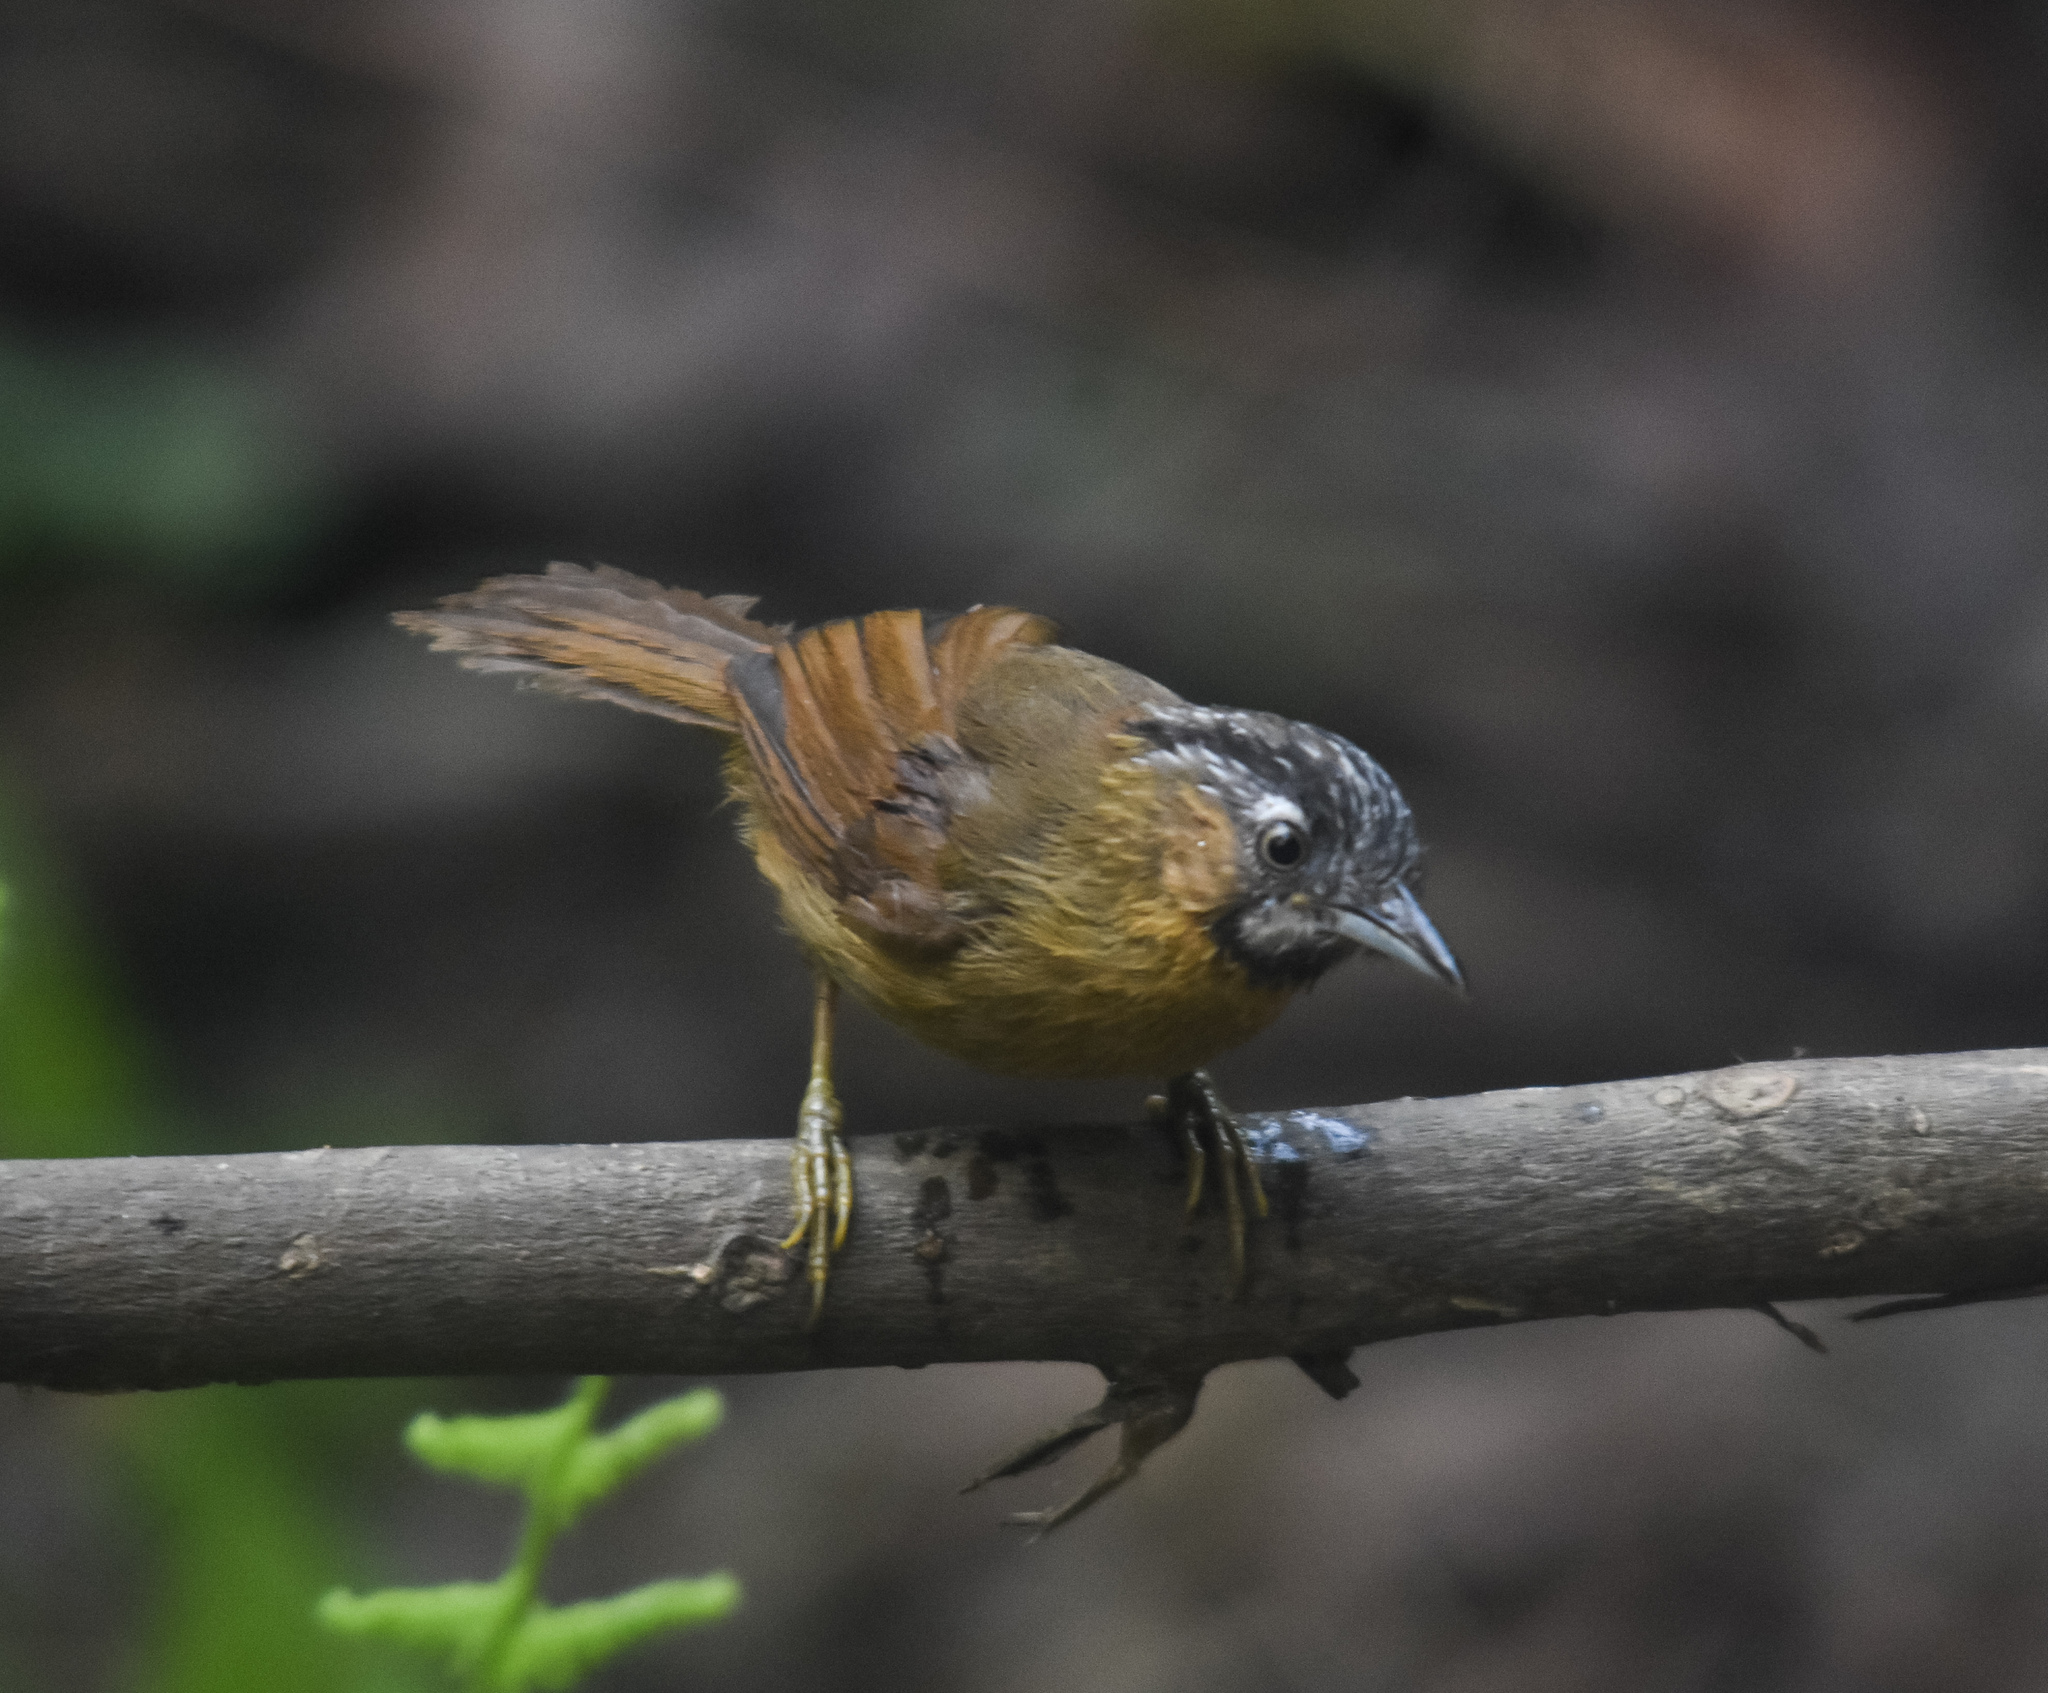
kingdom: Animalia
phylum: Chordata
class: Aves
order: Passeriformes
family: Timaliidae
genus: Stachyris
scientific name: Stachyris nigriceps
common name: Grey-throated babbler
